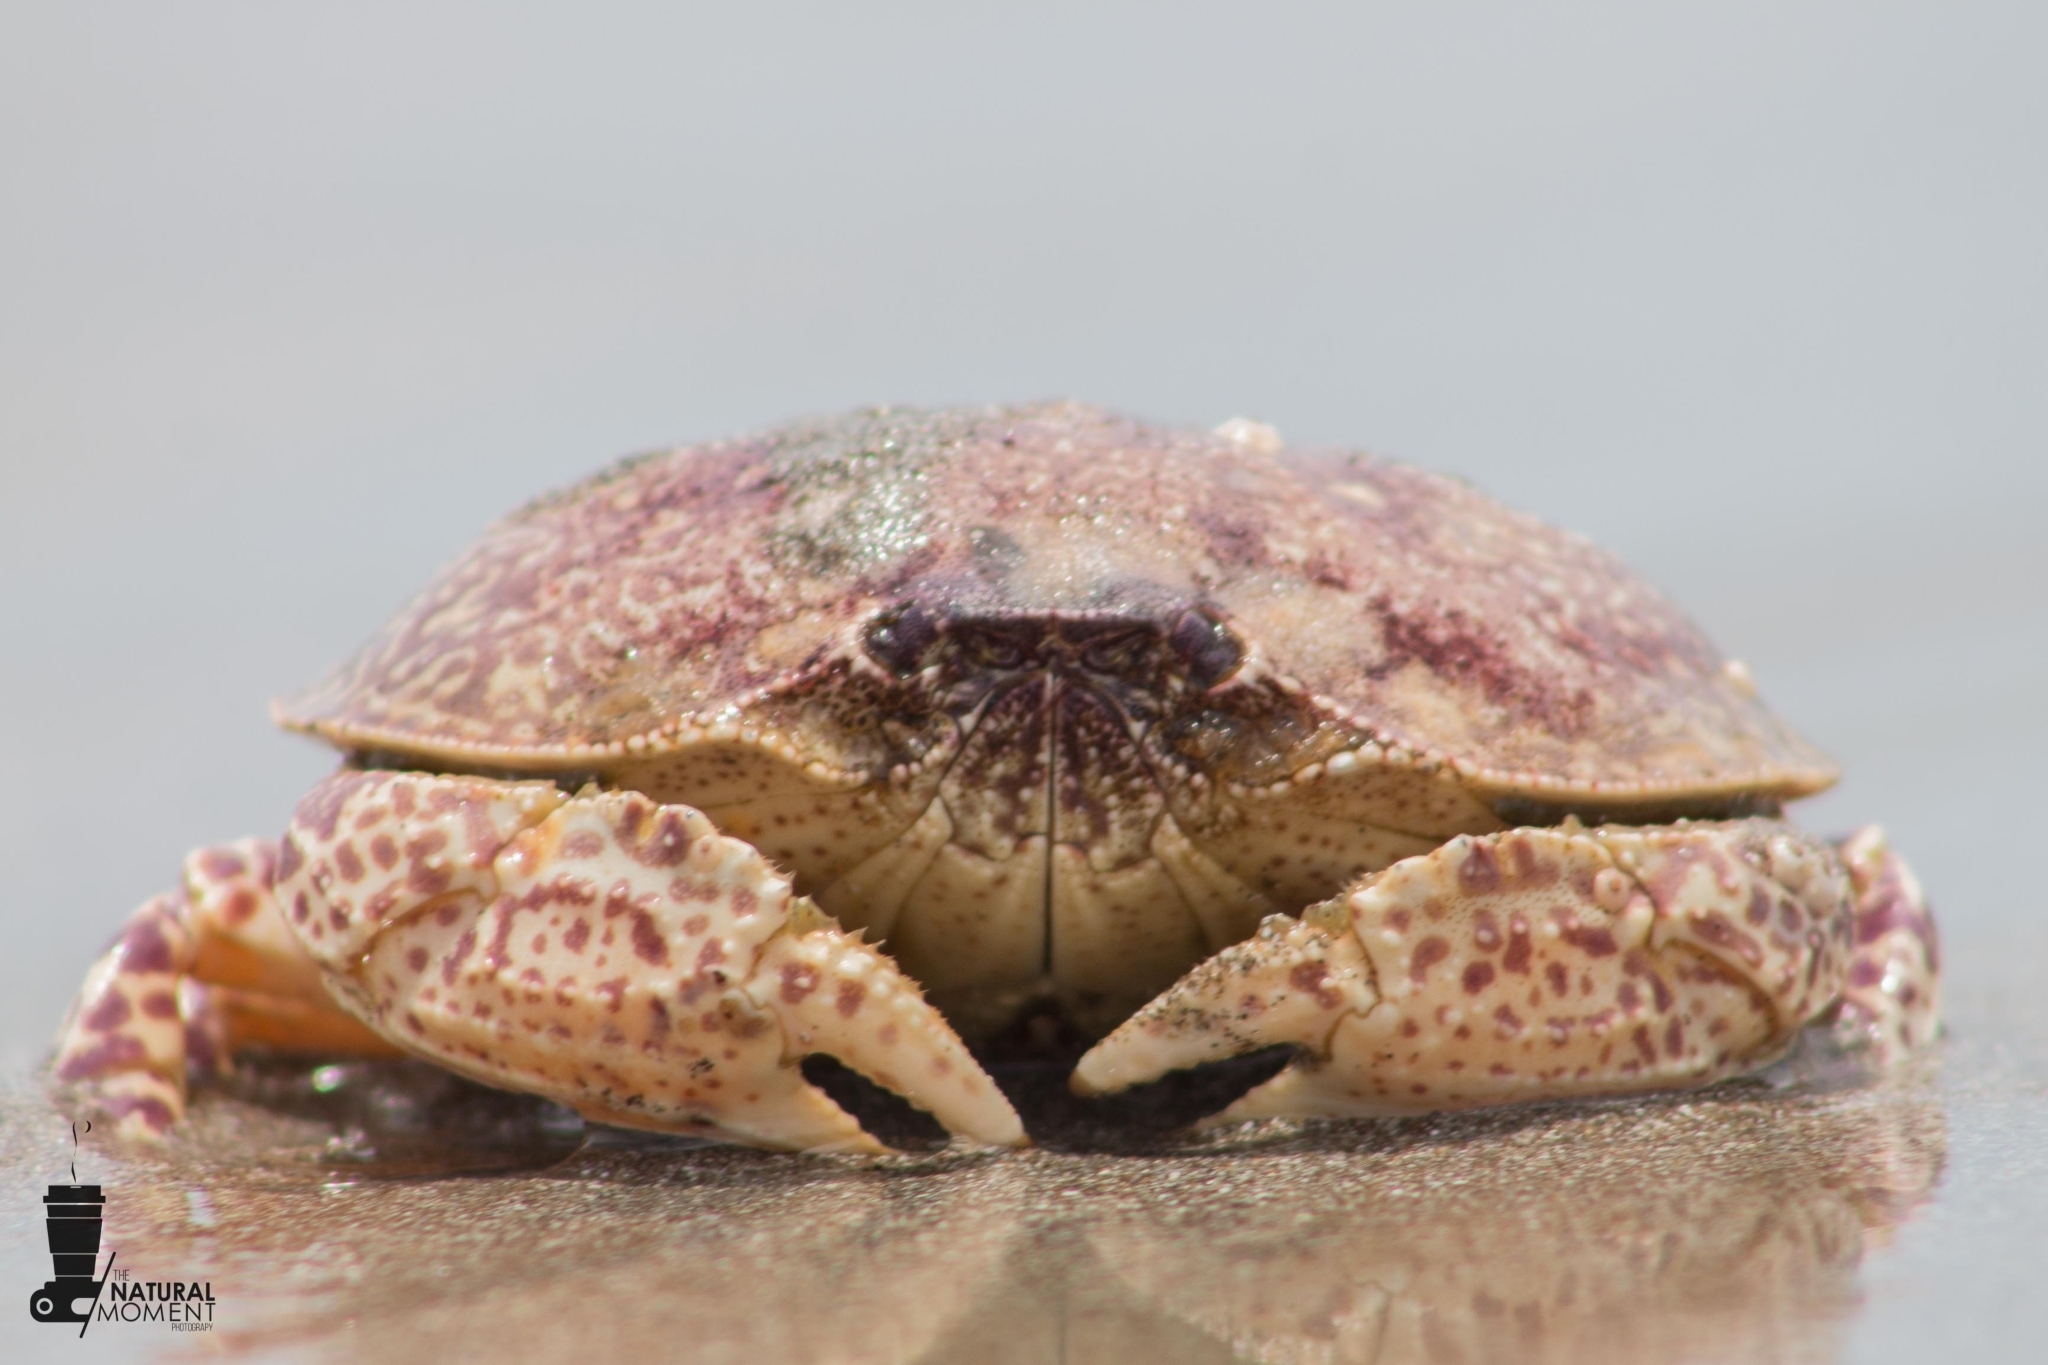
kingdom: Animalia
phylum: Arthropoda
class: Malacostraca
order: Decapoda
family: Aethridae
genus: Hepatus
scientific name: Hepatus chiliensis
